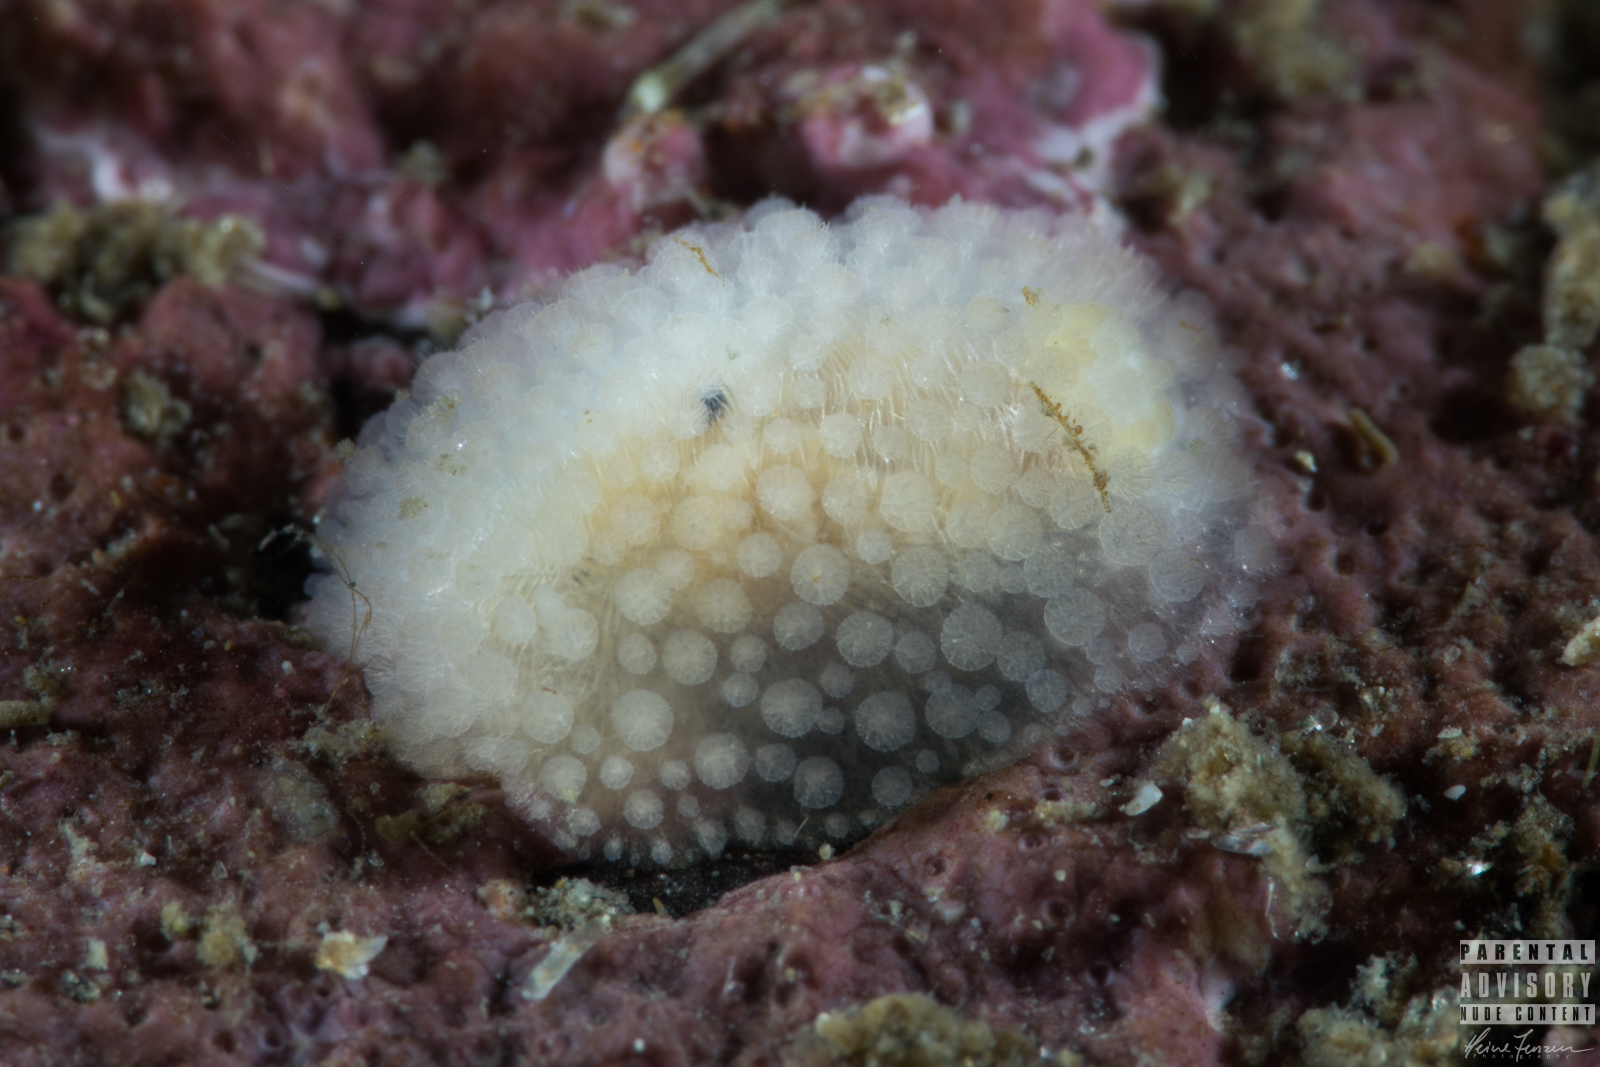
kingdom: Animalia
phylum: Mollusca
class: Gastropoda
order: Nudibranchia
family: Onchidorididae
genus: Onchidoris
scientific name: Onchidoris muricata
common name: Rough doris
